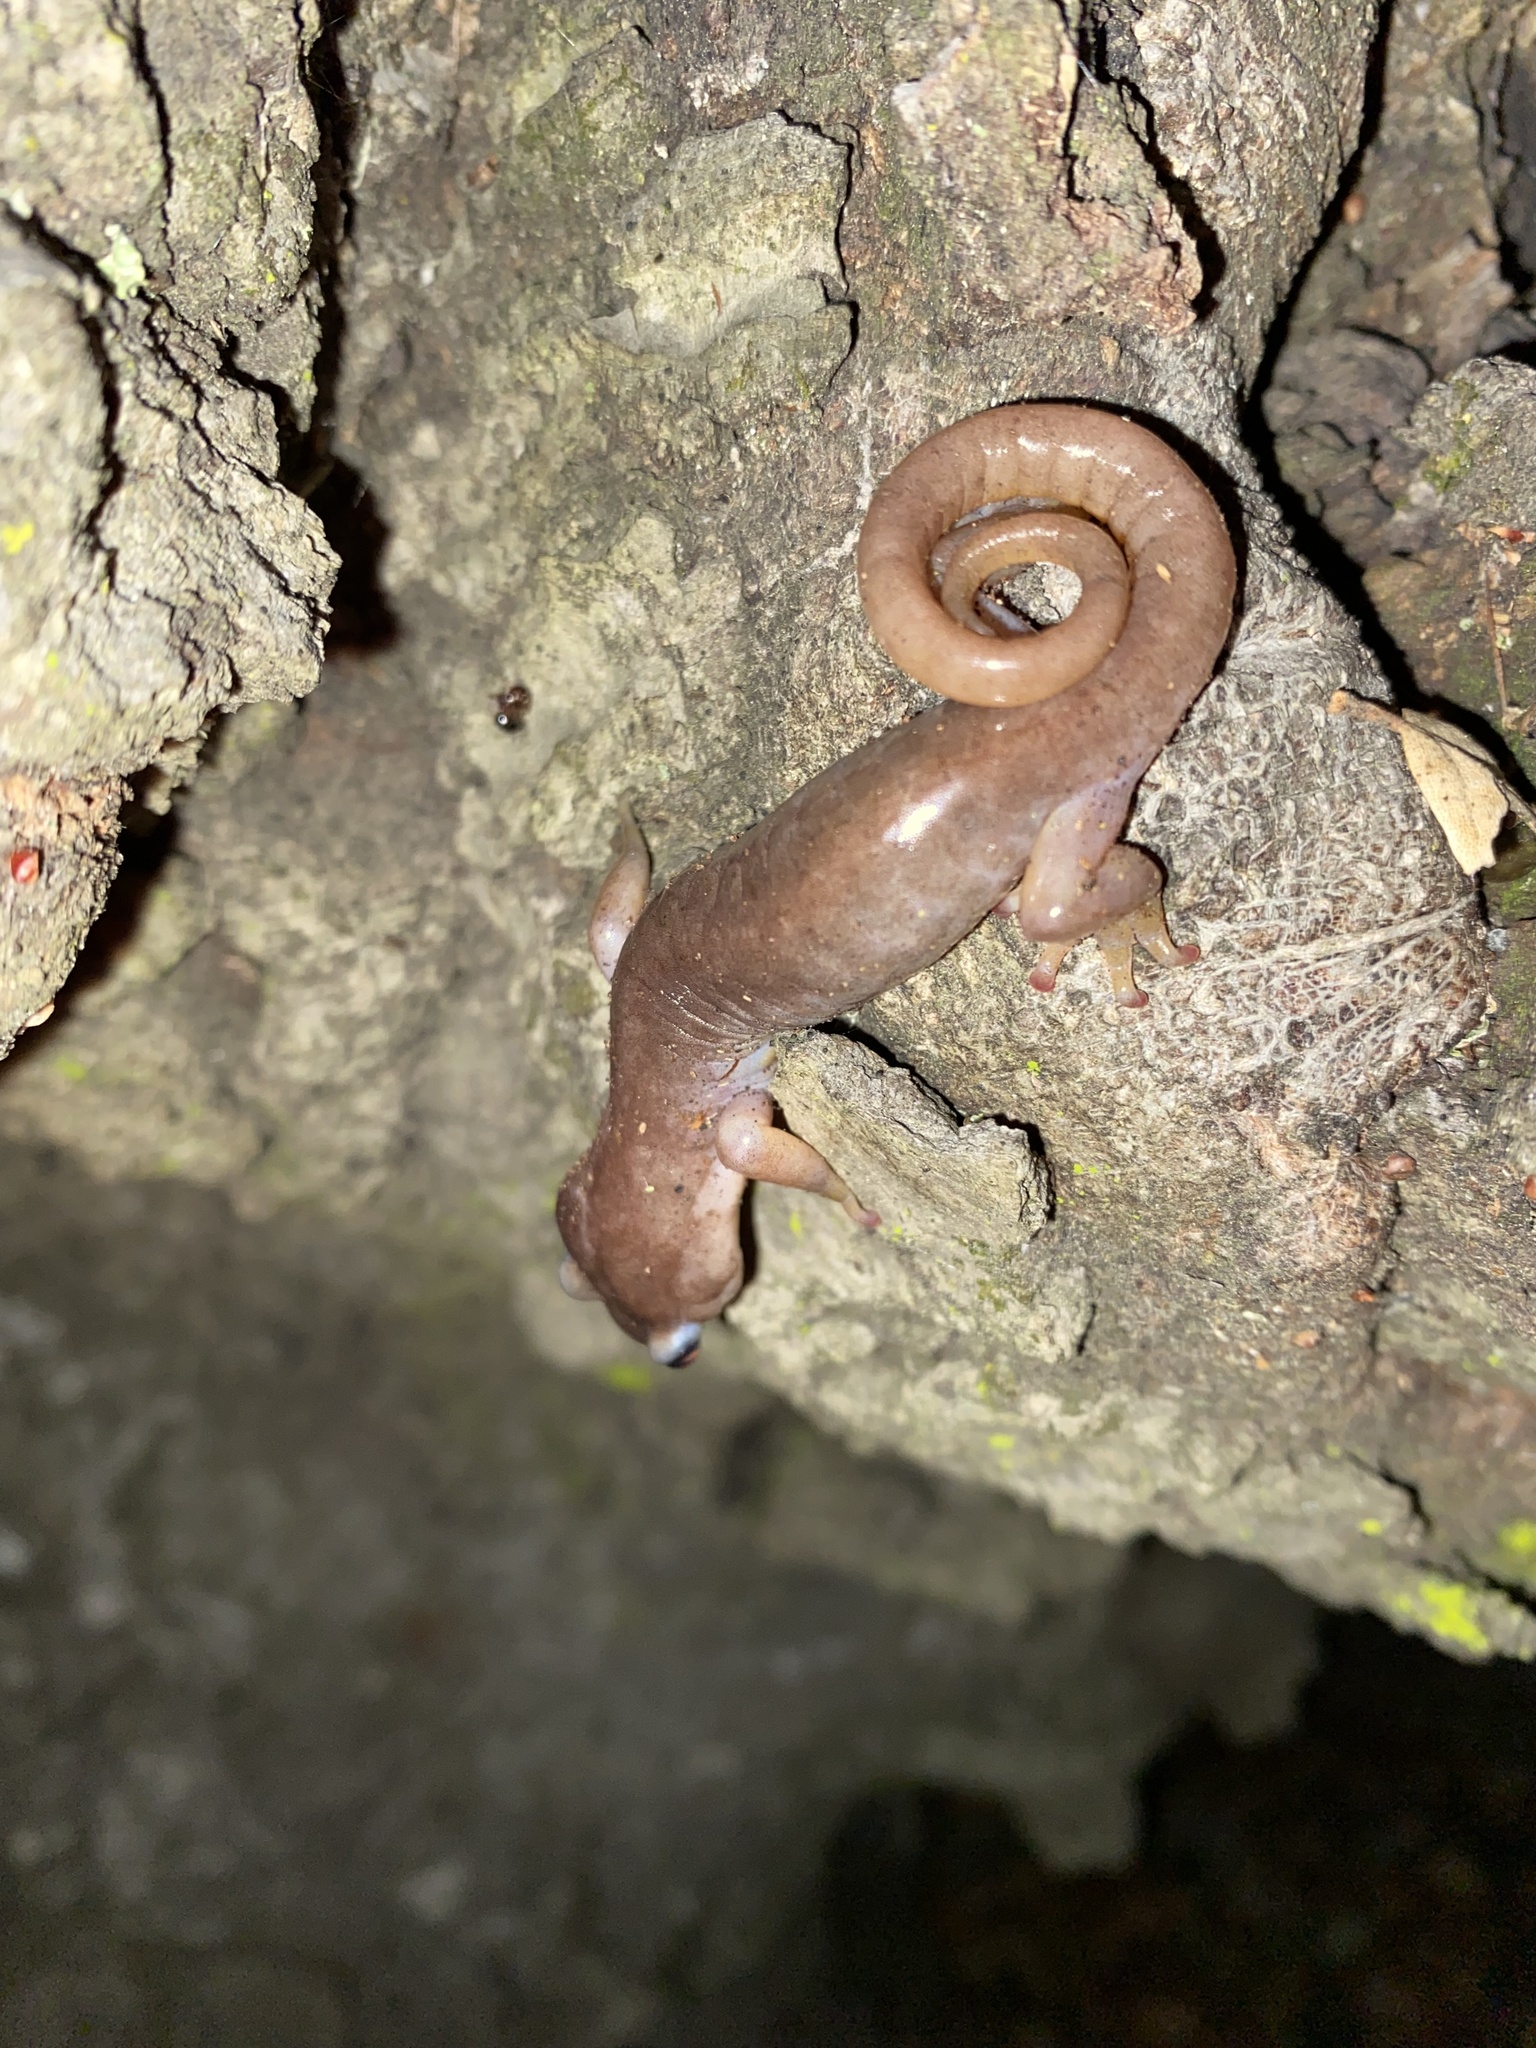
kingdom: Animalia
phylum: Chordata
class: Amphibia
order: Caudata
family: Plethodontidae
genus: Aneides
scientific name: Aneides lugubris
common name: Arboreal salamander
